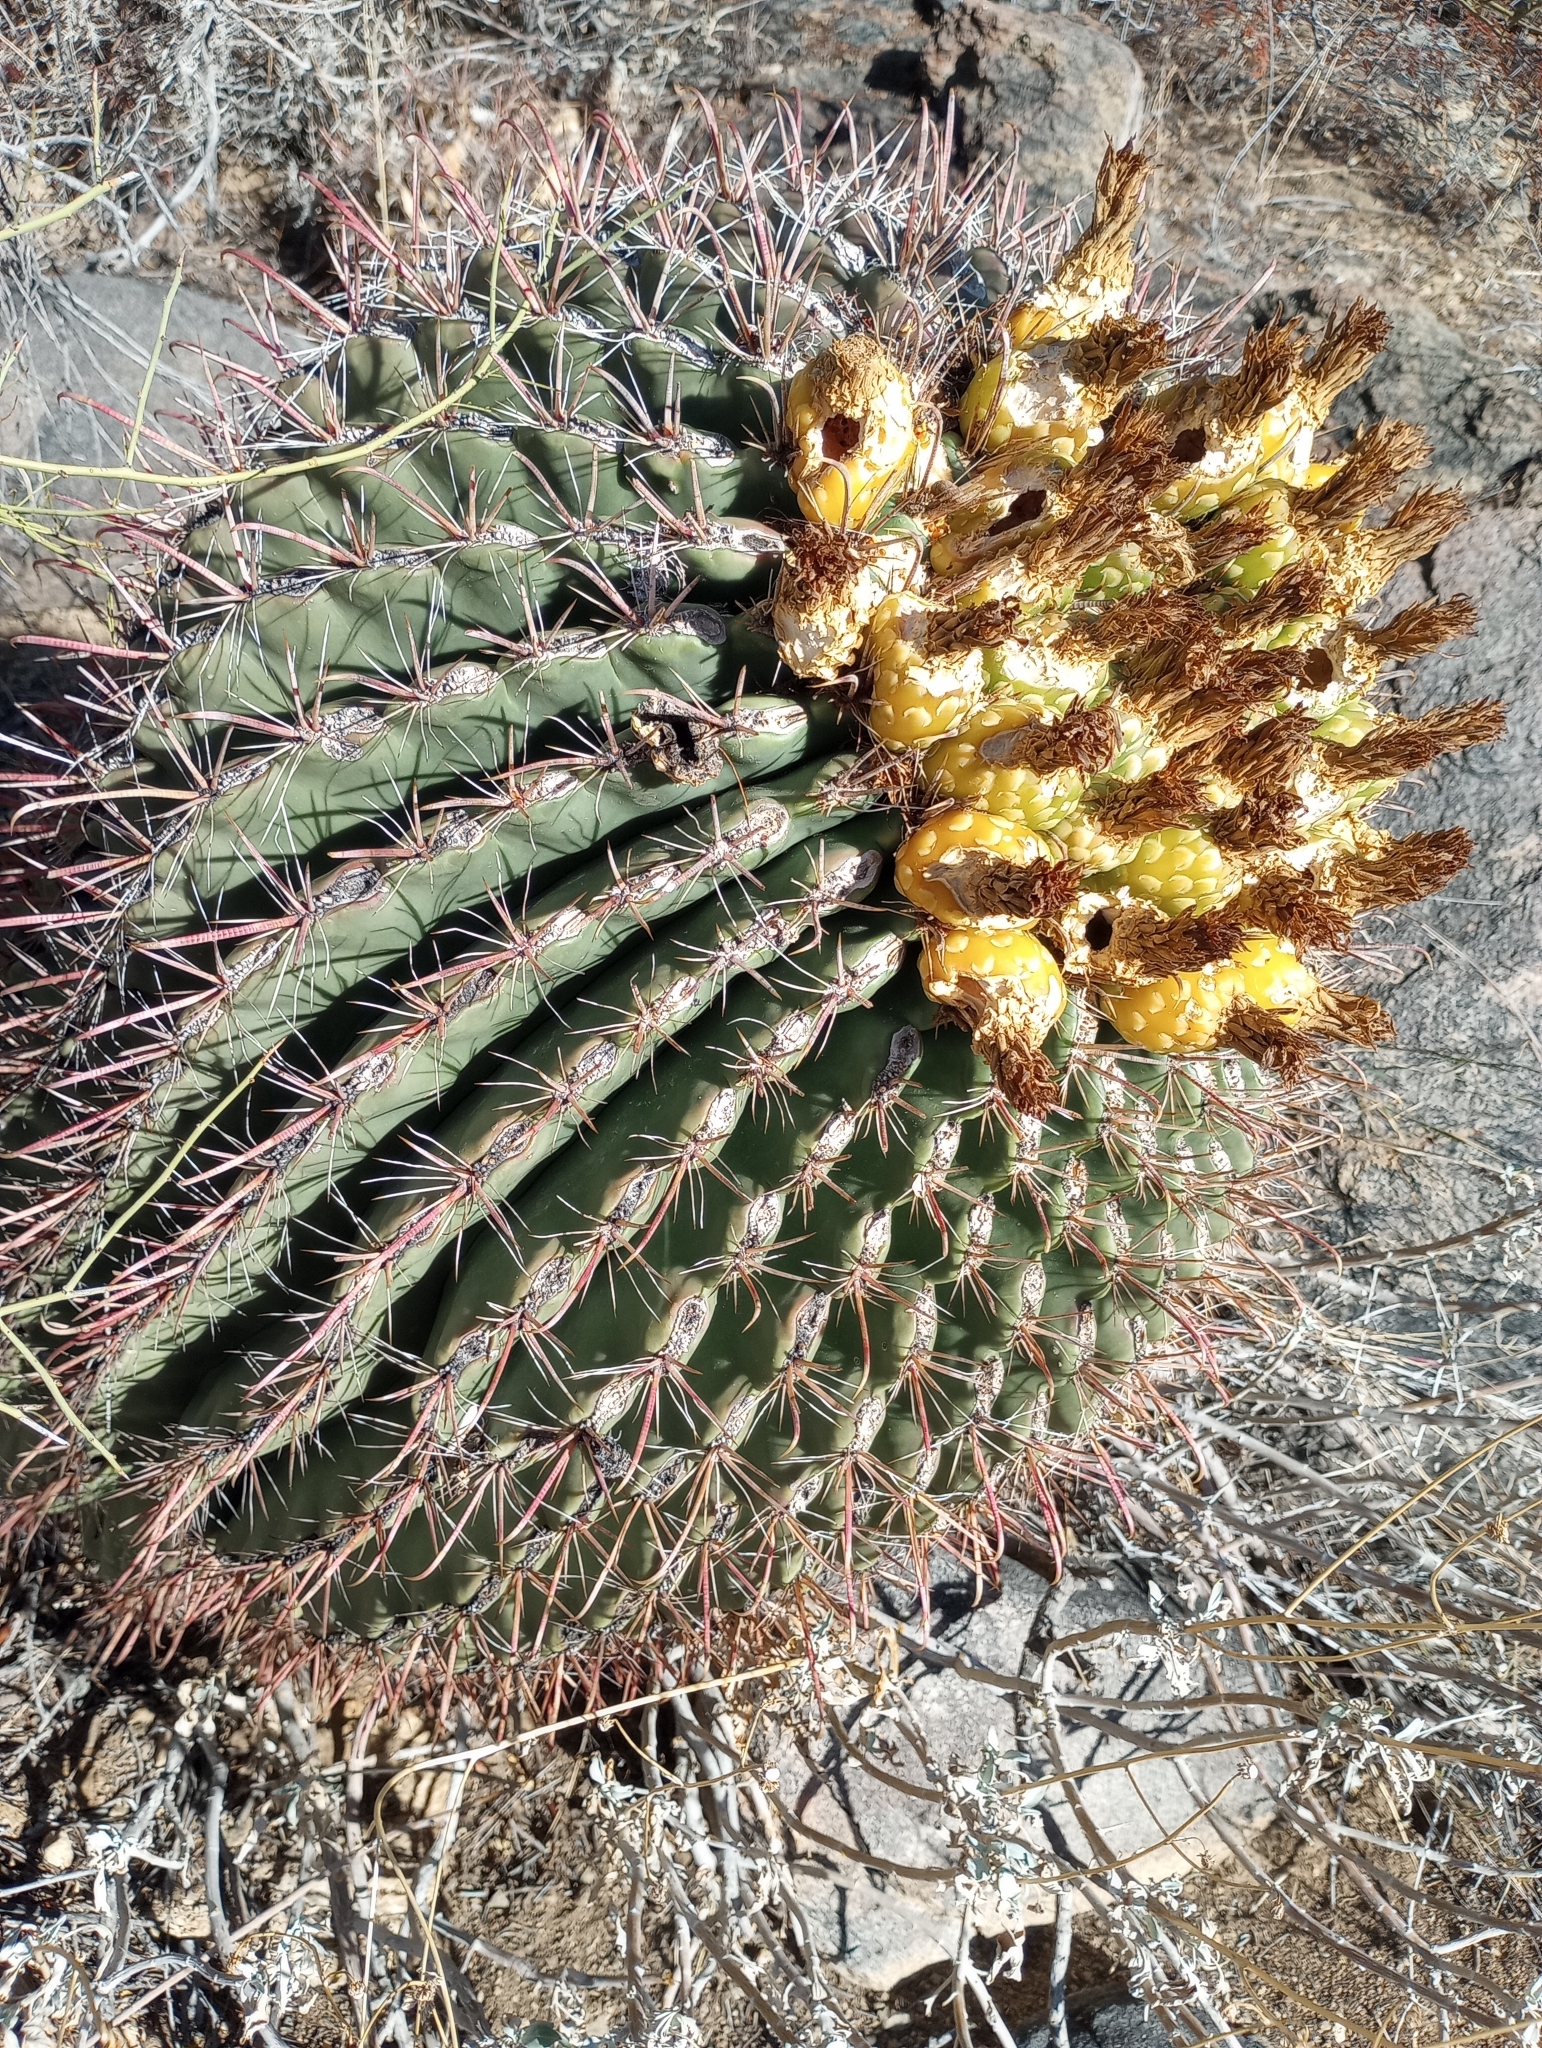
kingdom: Plantae
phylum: Tracheophyta
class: Magnoliopsida
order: Caryophyllales
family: Cactaceae
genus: Ferocactus
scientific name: Ferocactus wislizeni
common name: Candy barrel cactus
